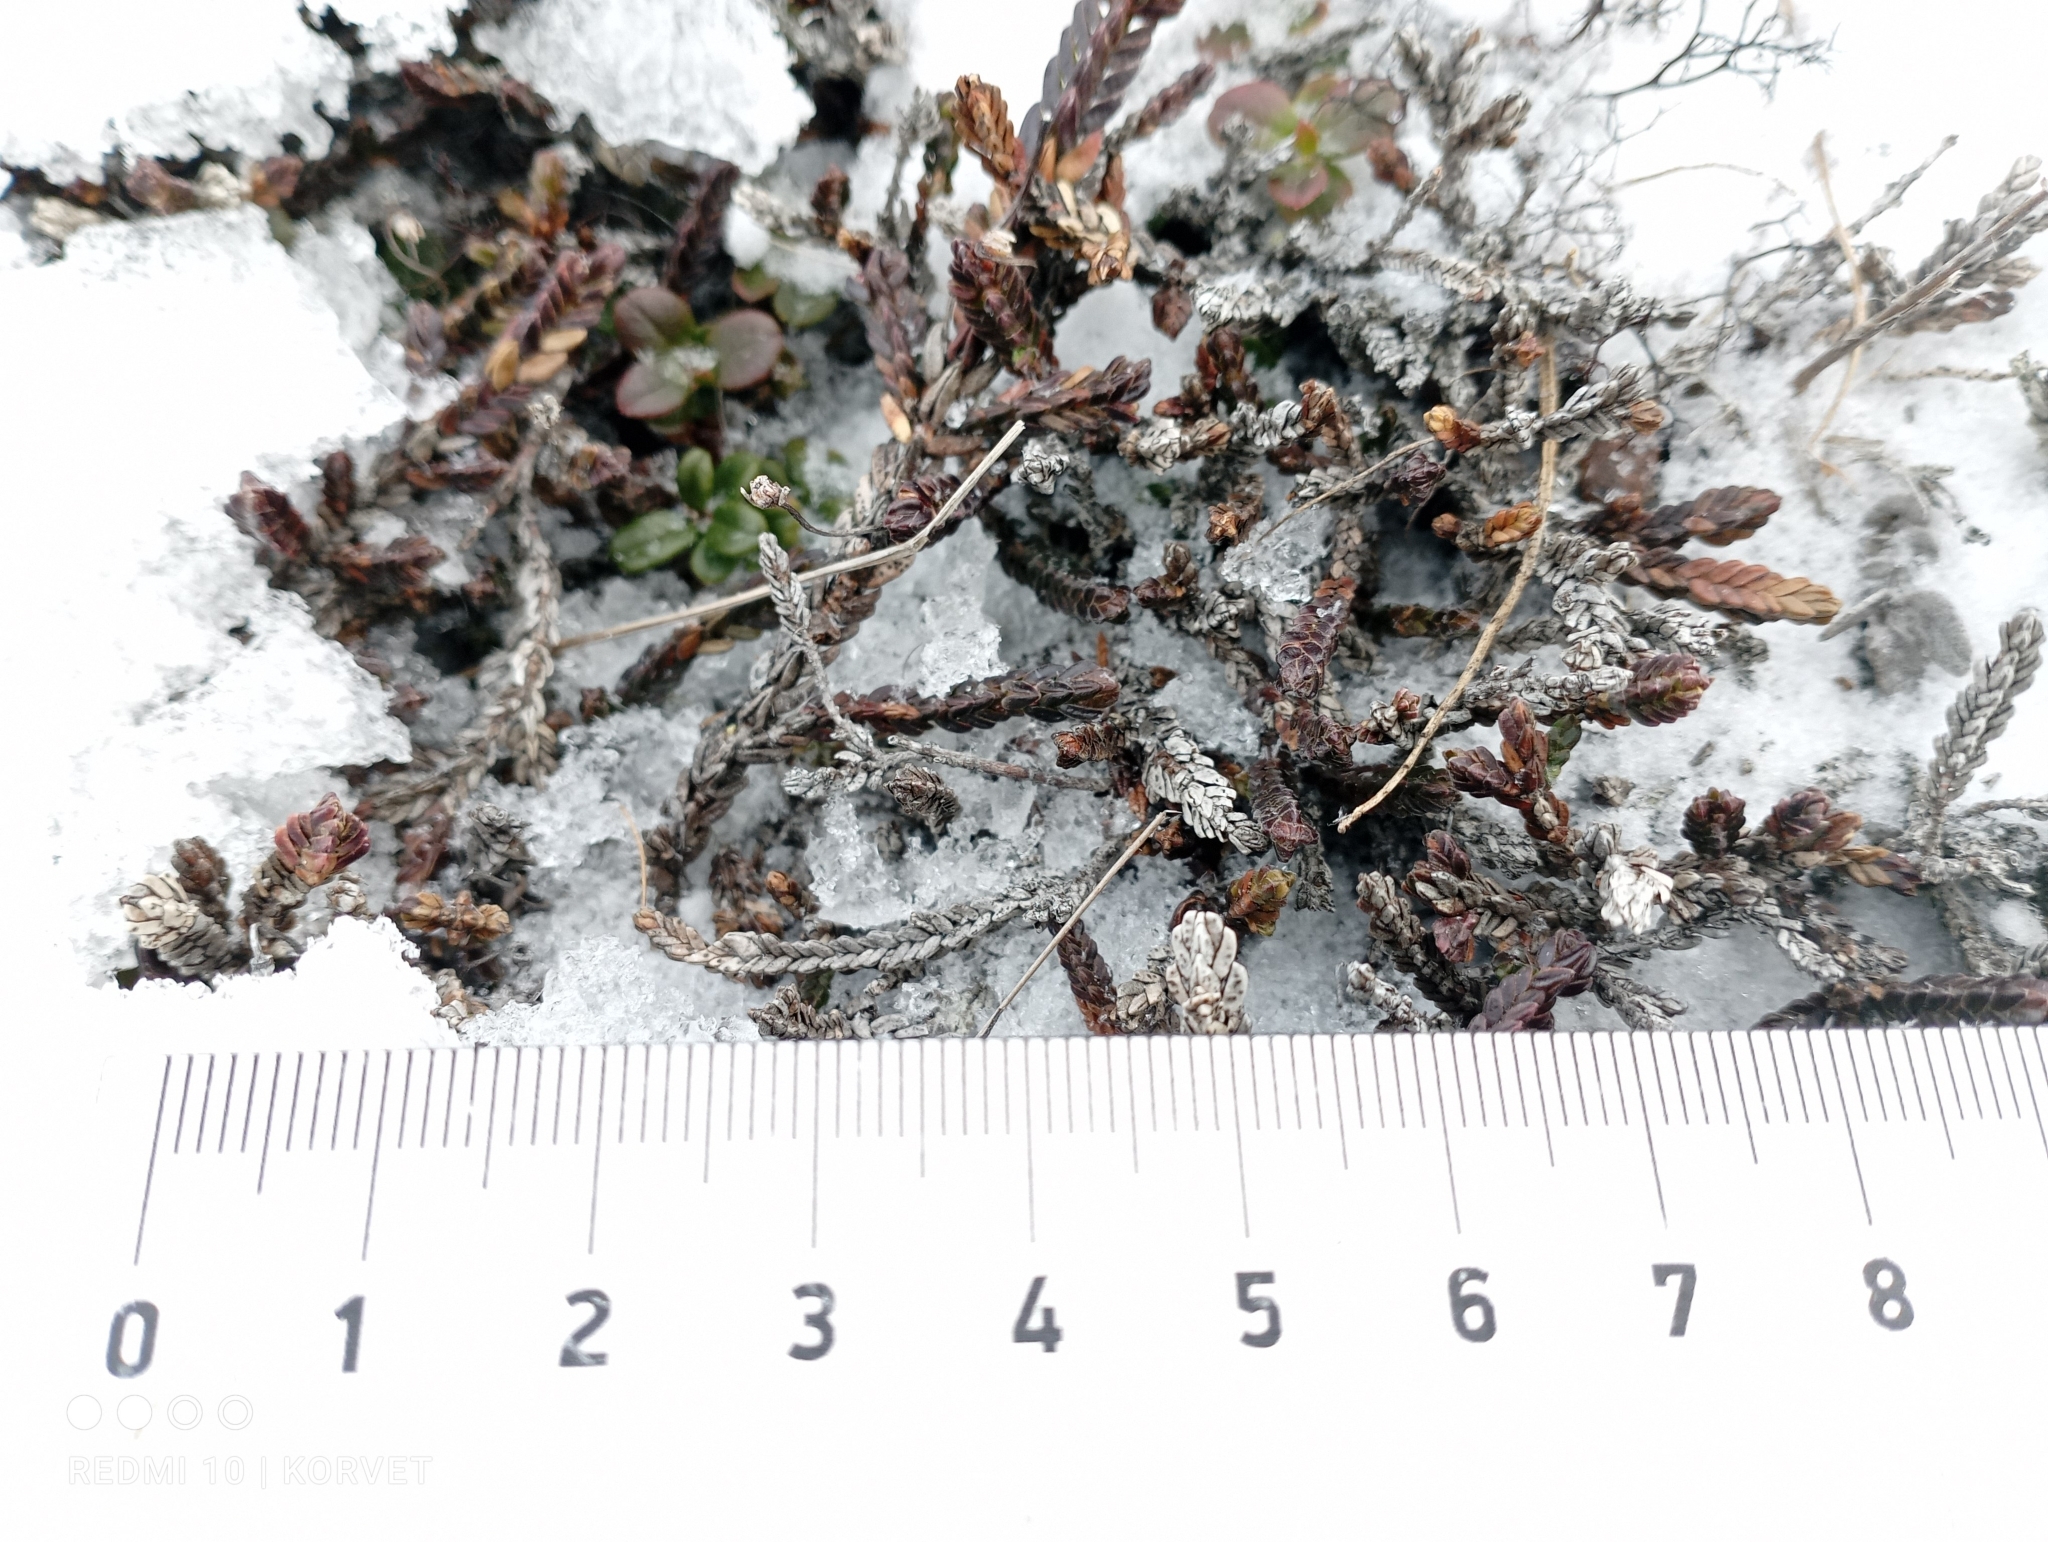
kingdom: Plantae
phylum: Tracheophyta
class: Magnoliopsida
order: Ericales
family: Ericaceae
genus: Cassiope
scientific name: Cassiope tetragona
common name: Arctic bell heather
